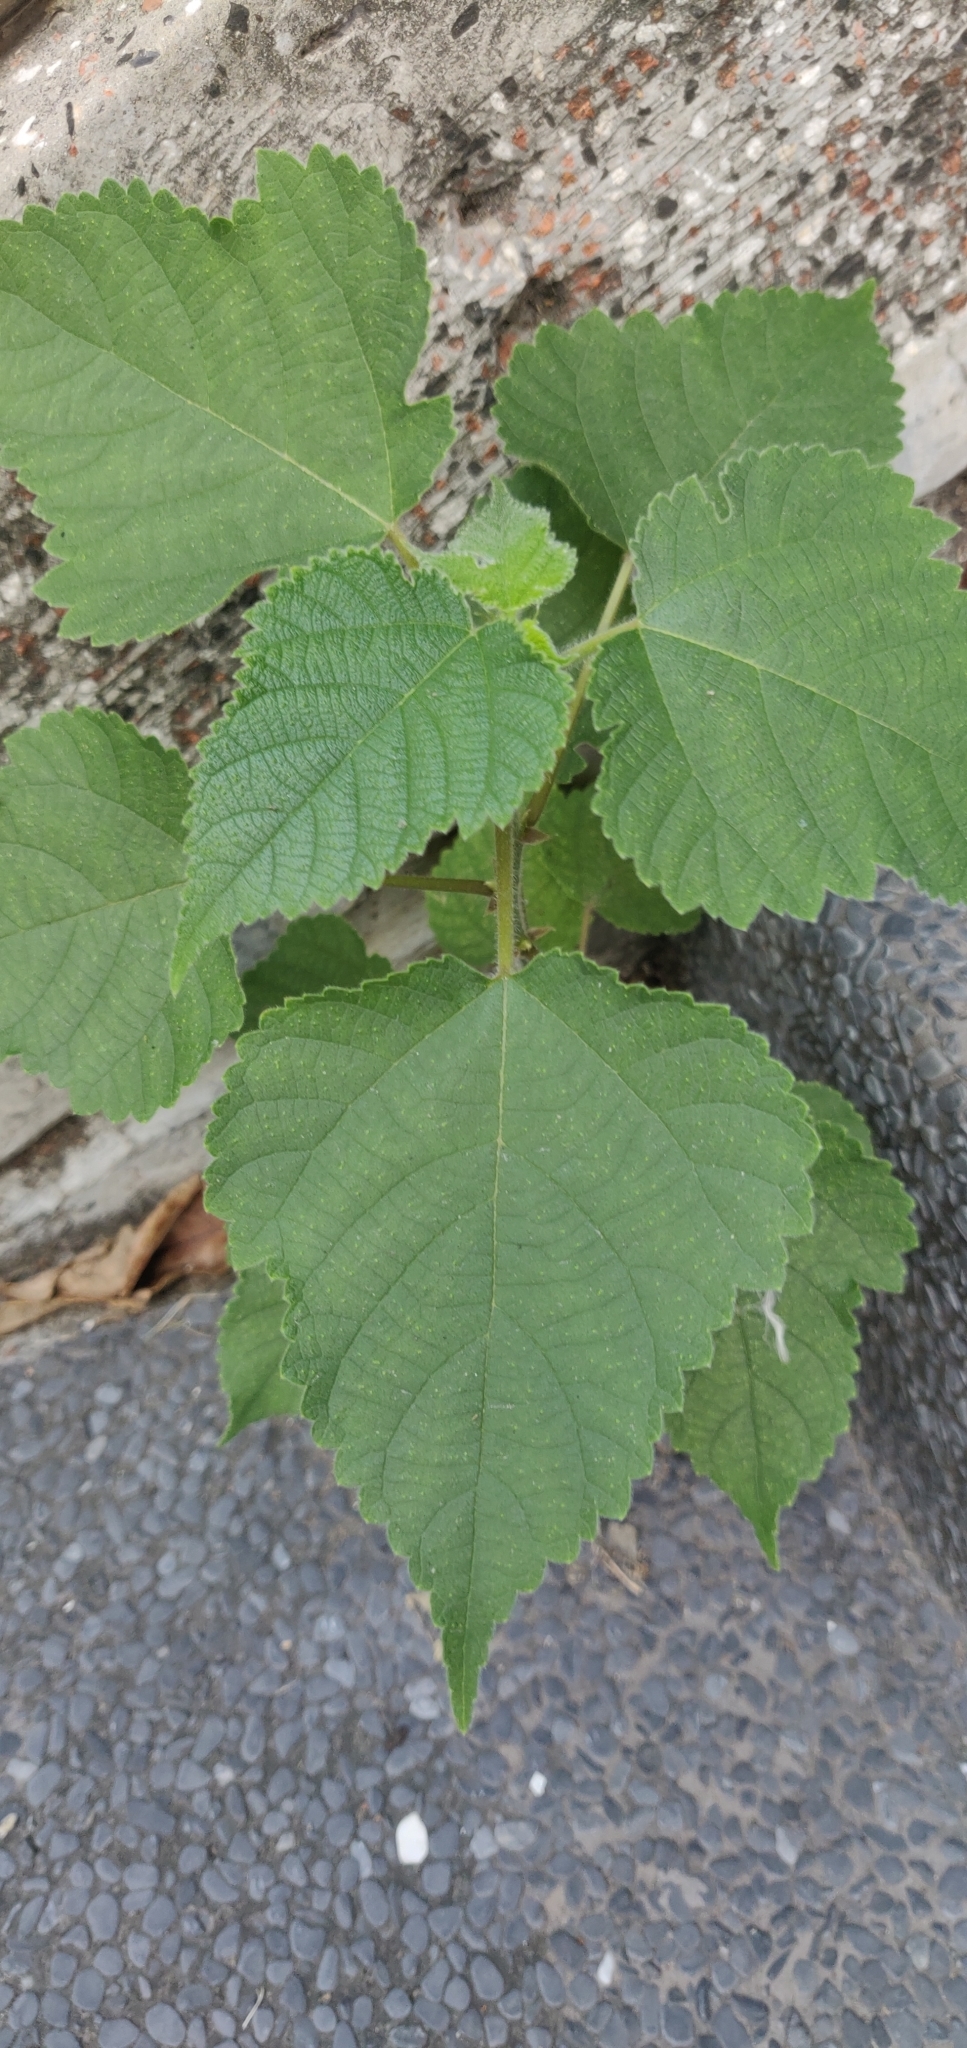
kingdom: Plantae
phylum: Tracheophyta
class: Magnoliopsida
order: Rosales
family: Moraceae
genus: Broussonetia
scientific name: Broussonetia papyrifera
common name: Paper mulberry
